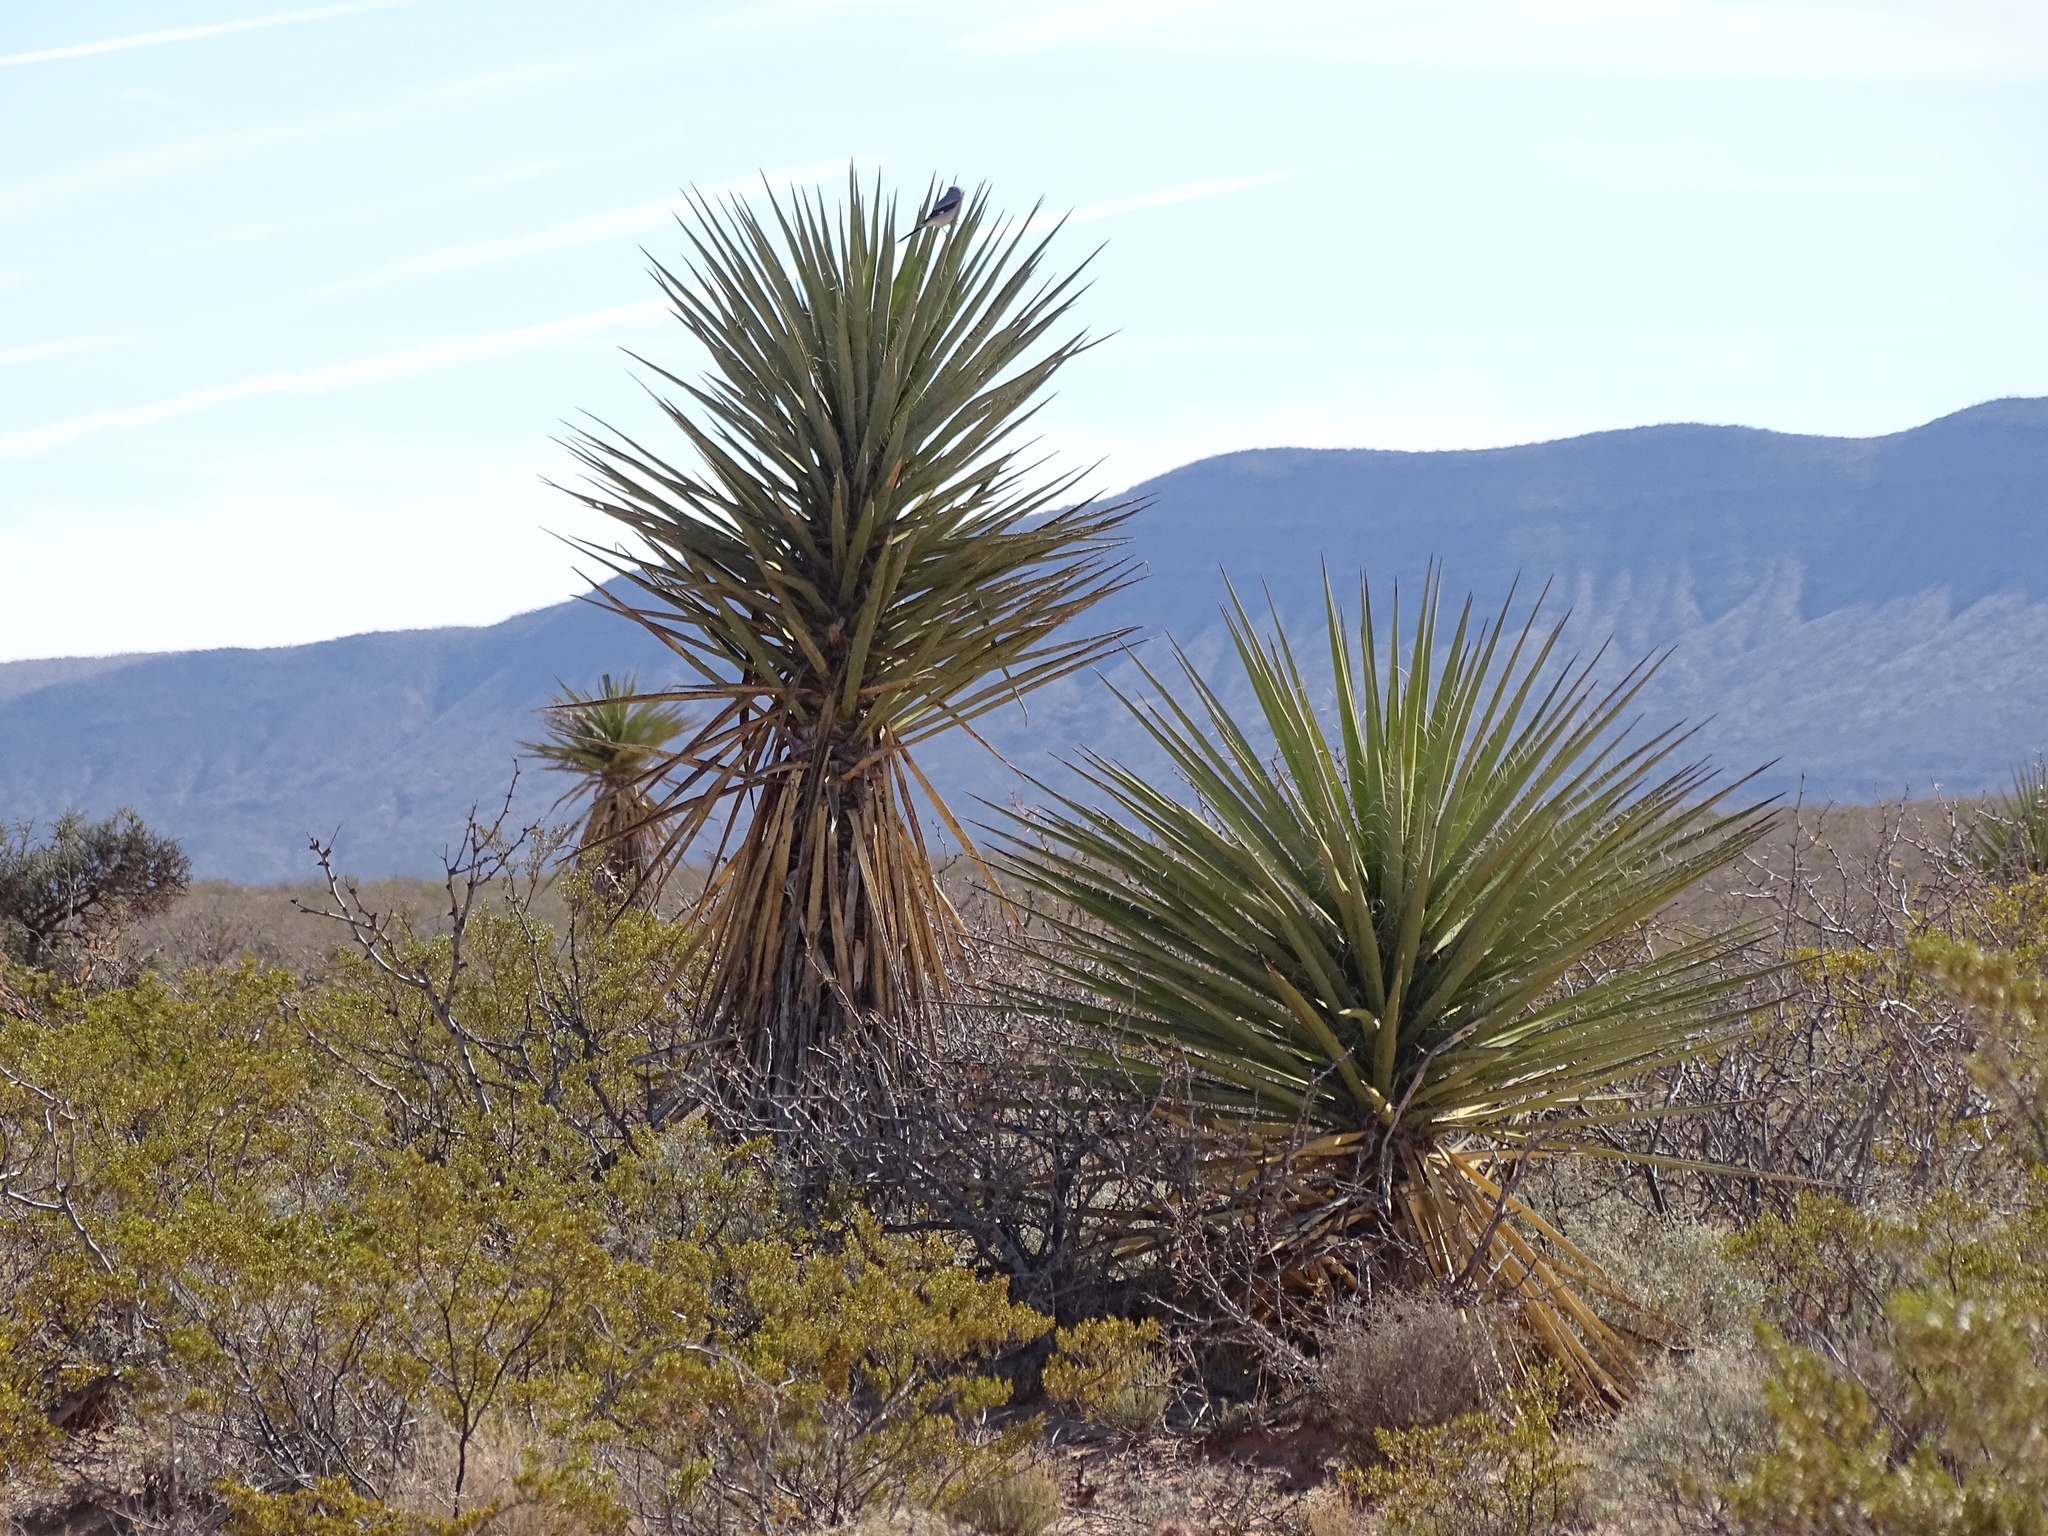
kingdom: Plantae
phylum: Tracheophyta
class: Liliopsida
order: Asparagales
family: Asparagaceae
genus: Yucca
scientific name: Yucca treculiana
